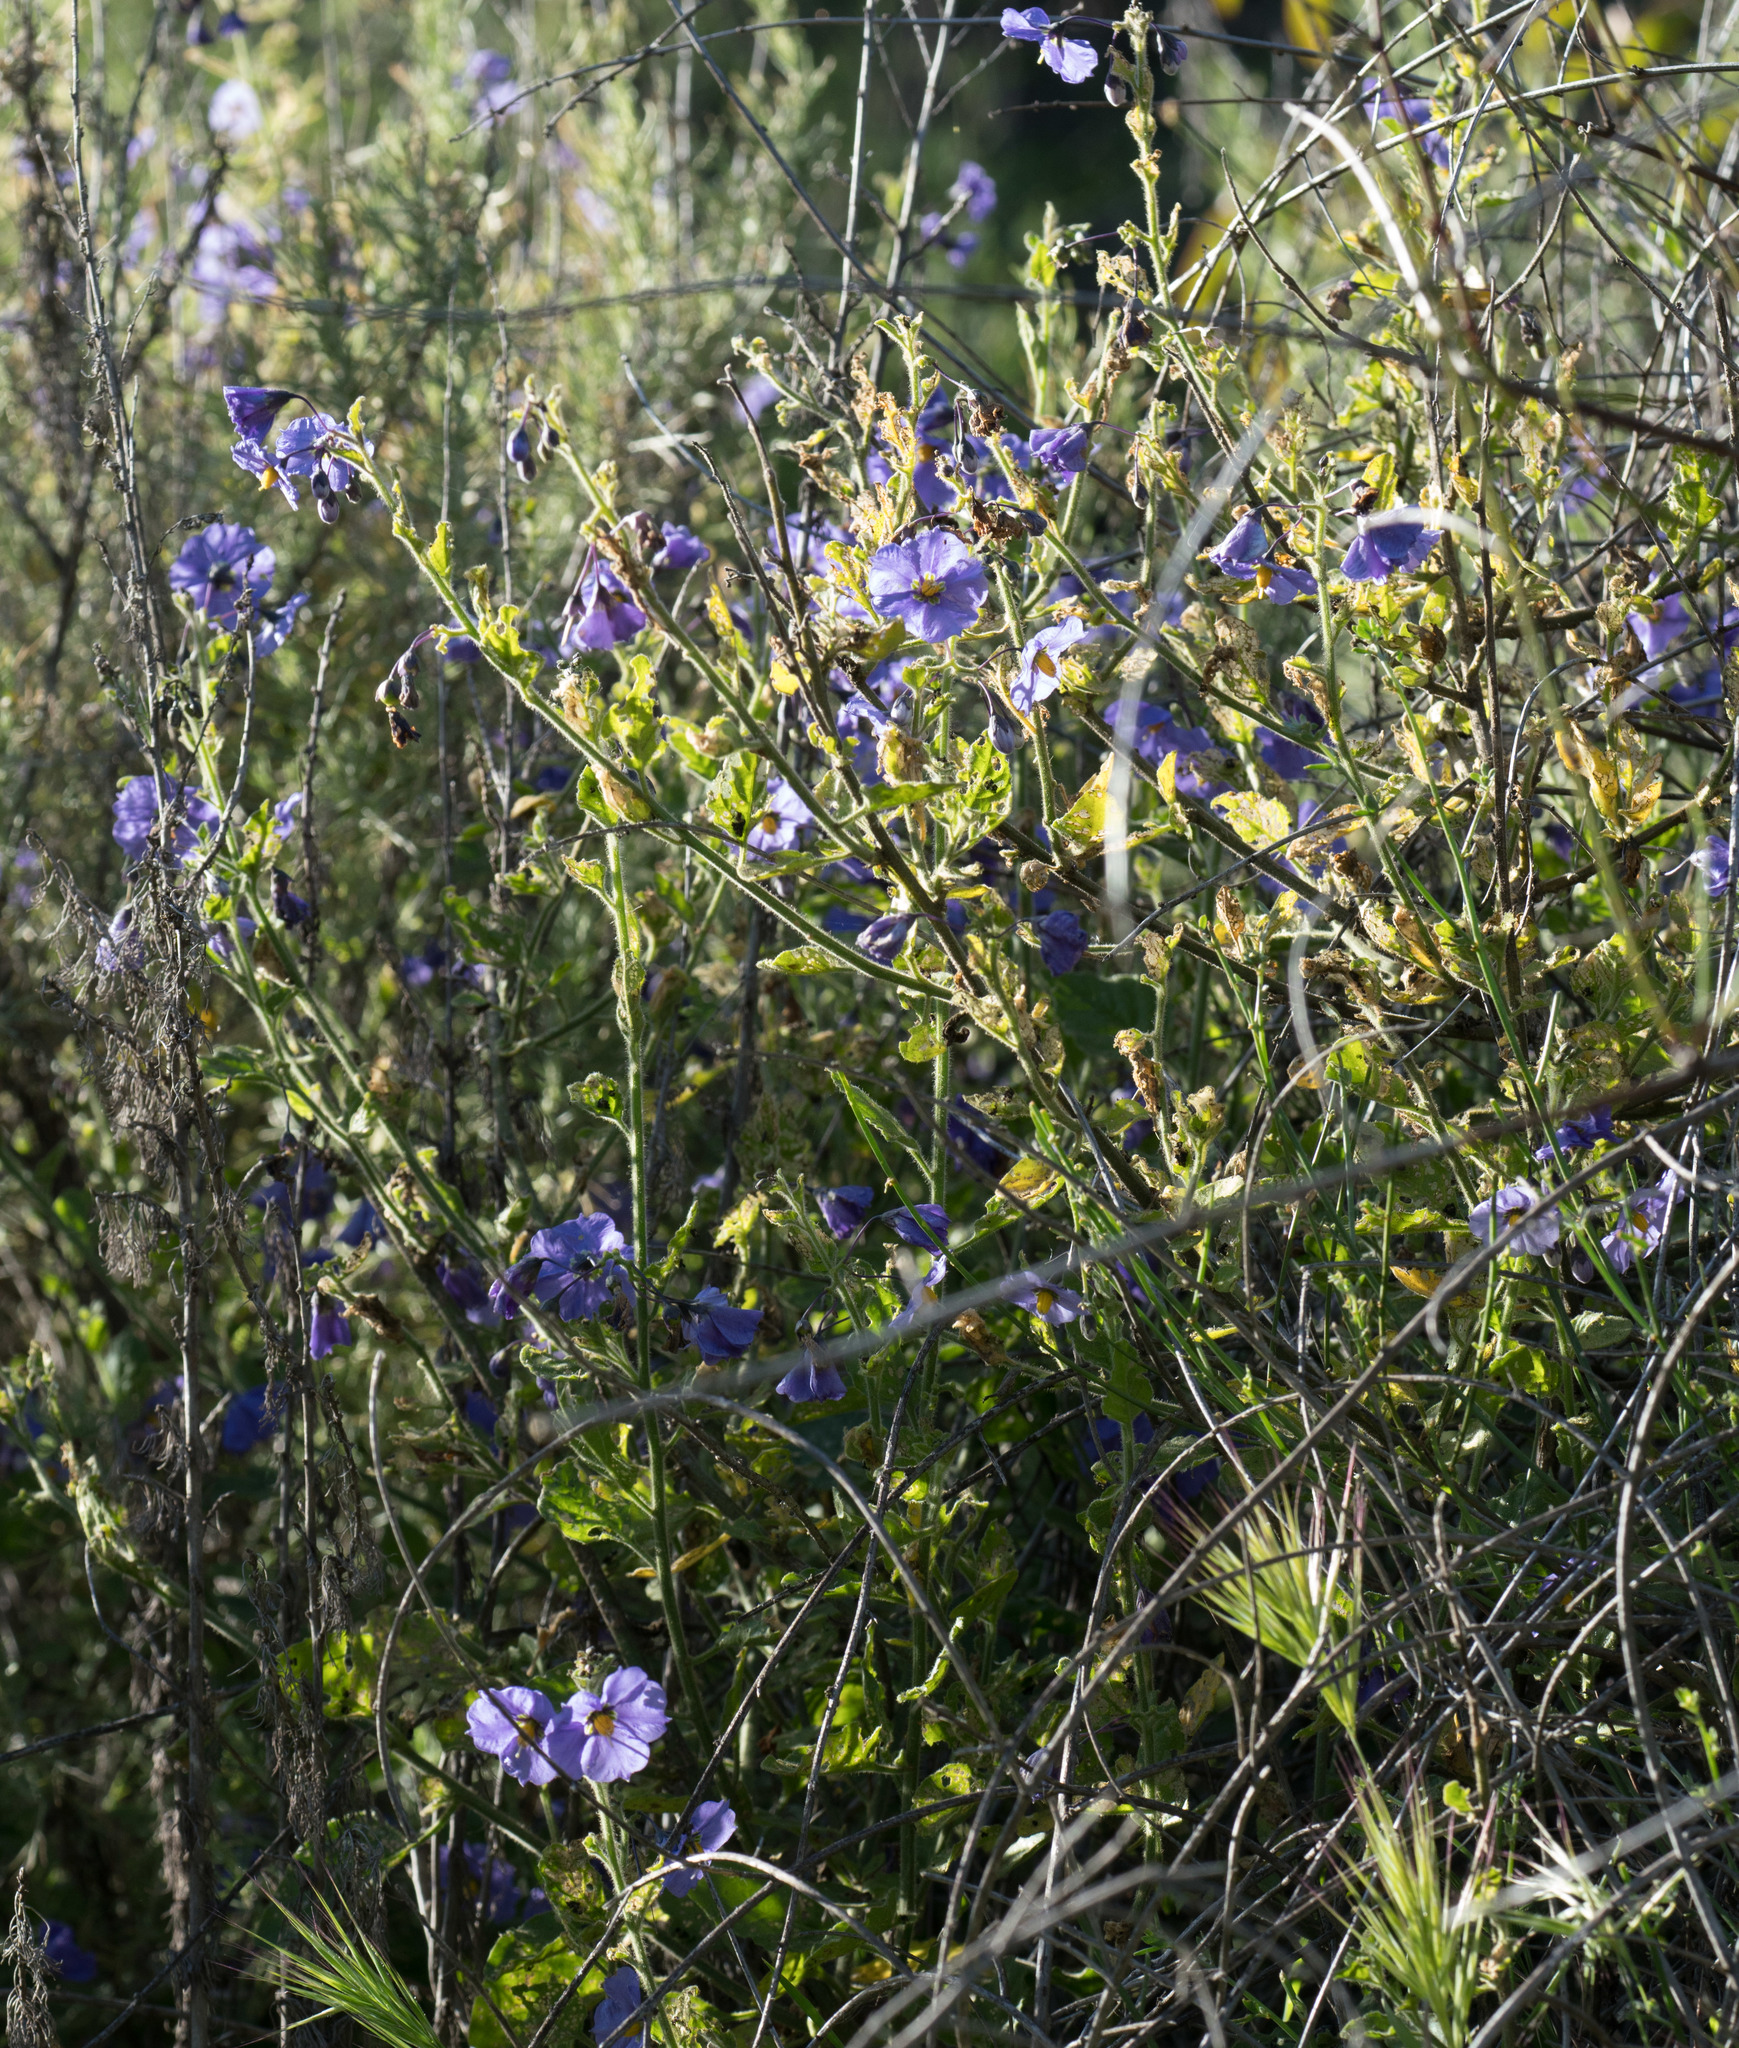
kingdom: Plantae
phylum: Tracheophyta
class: Magnoliopsida
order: Solanales
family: Solanaceae
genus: Solanum
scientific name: Solanum umbelliferum
